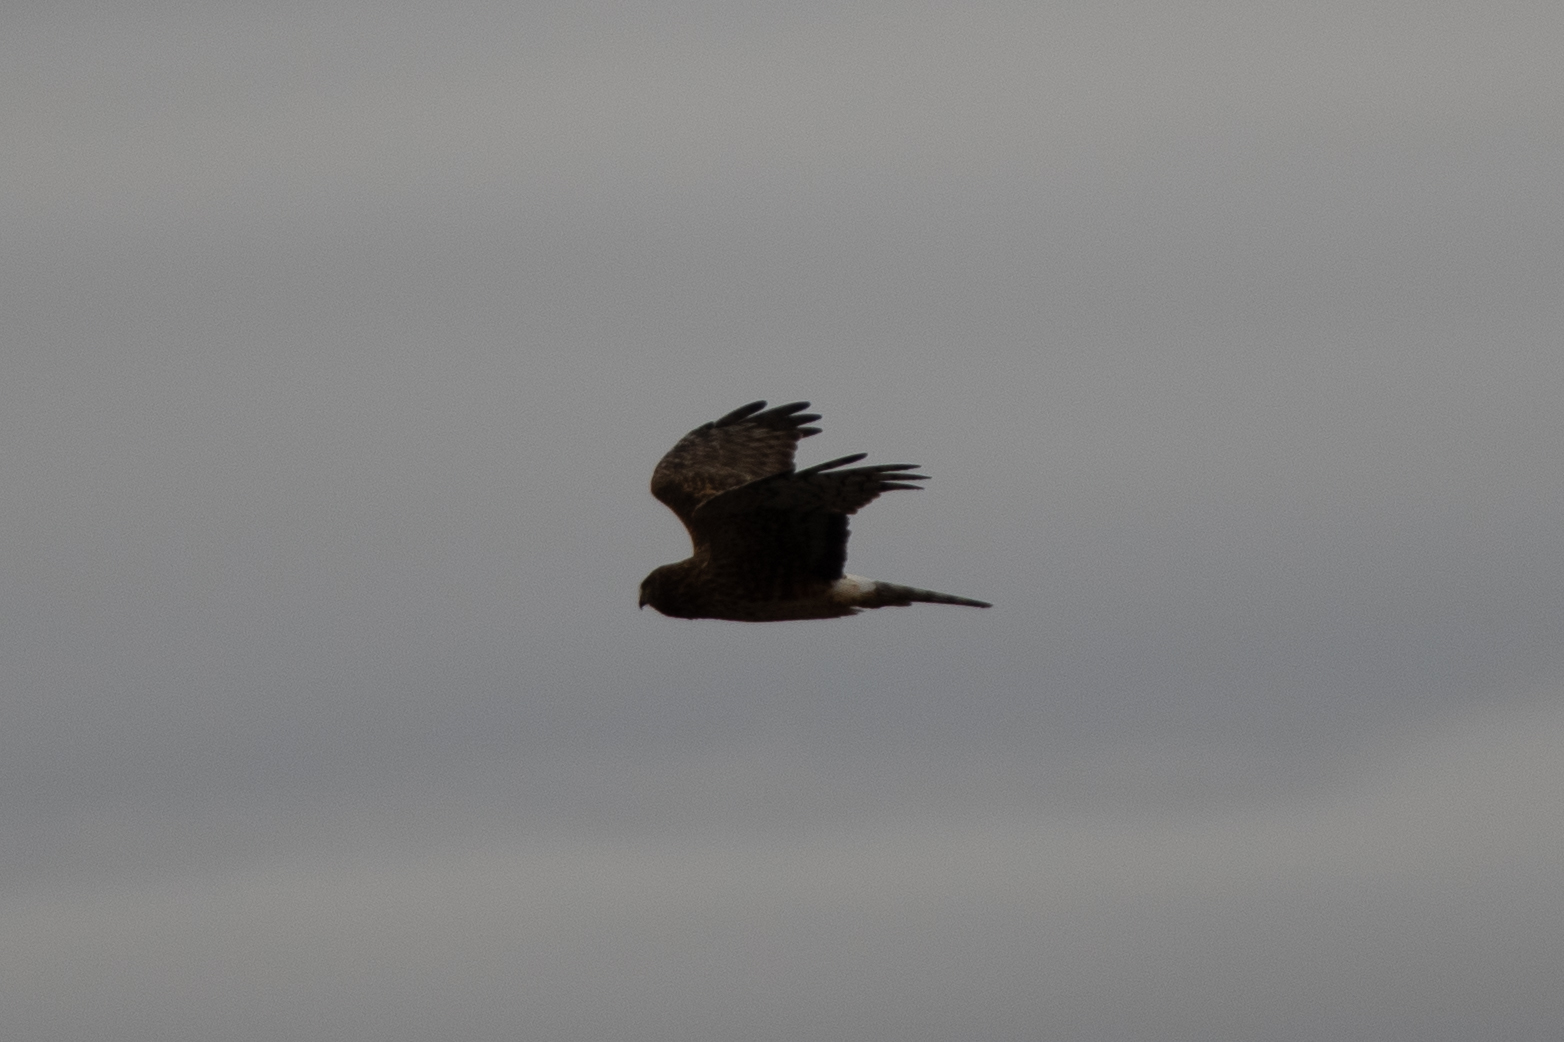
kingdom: Animalia
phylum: Chordata
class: Aves
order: Accipitriformes
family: Accipitridae
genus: Circus
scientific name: Circus cyaneus
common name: Hen harrier
